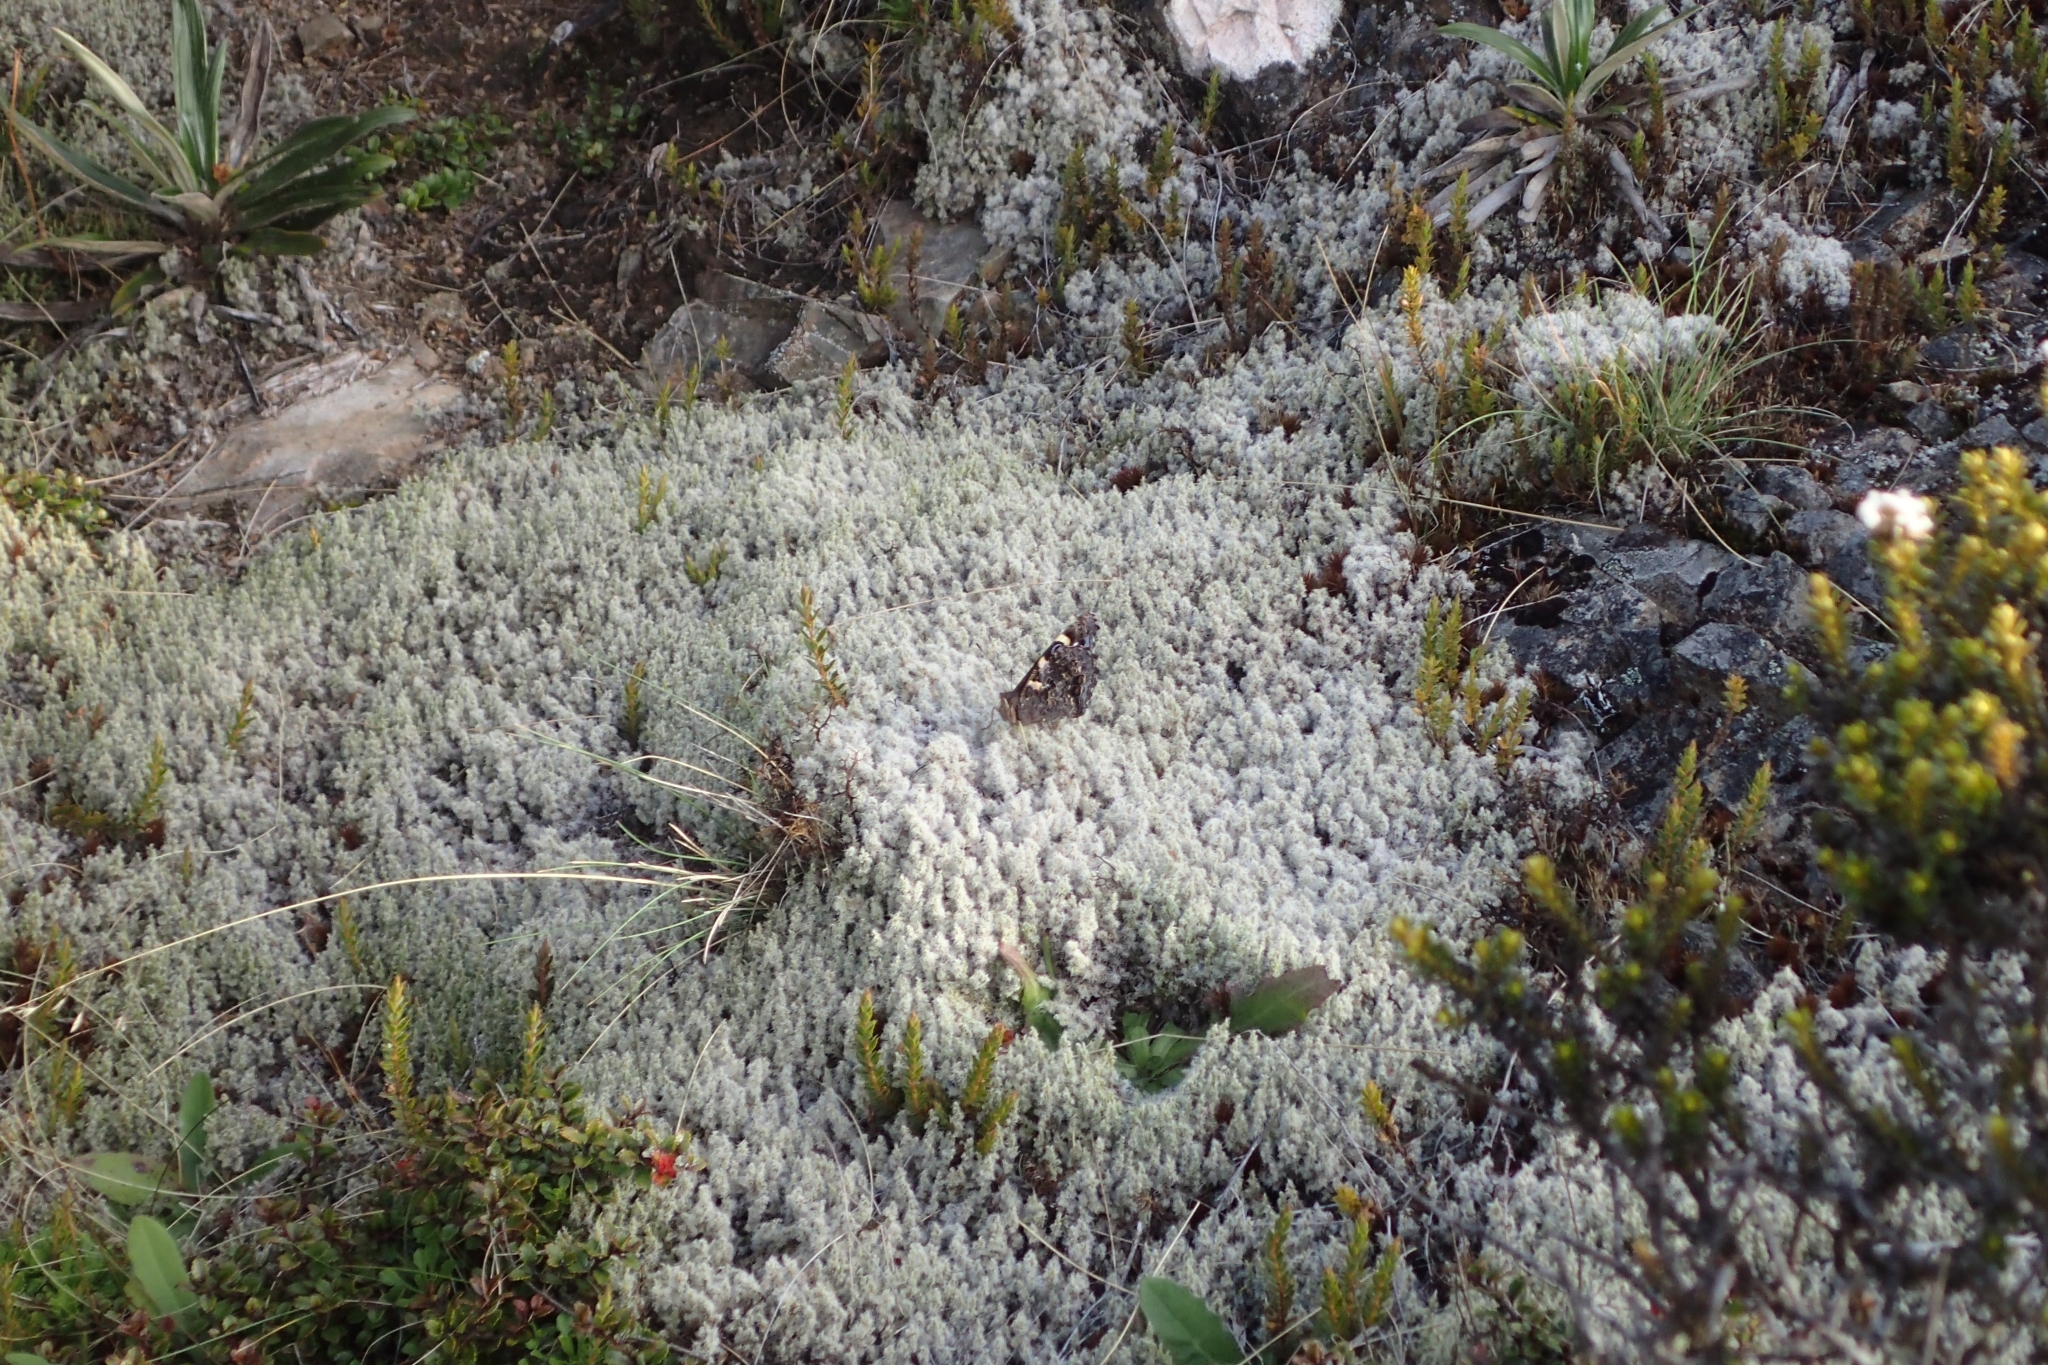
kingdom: Animalia
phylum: Arthropoda
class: Insecta
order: Lepidoptera
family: Nymphalidae
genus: Vanessa
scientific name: Vanessa gonerilla
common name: New zealand red admiral
